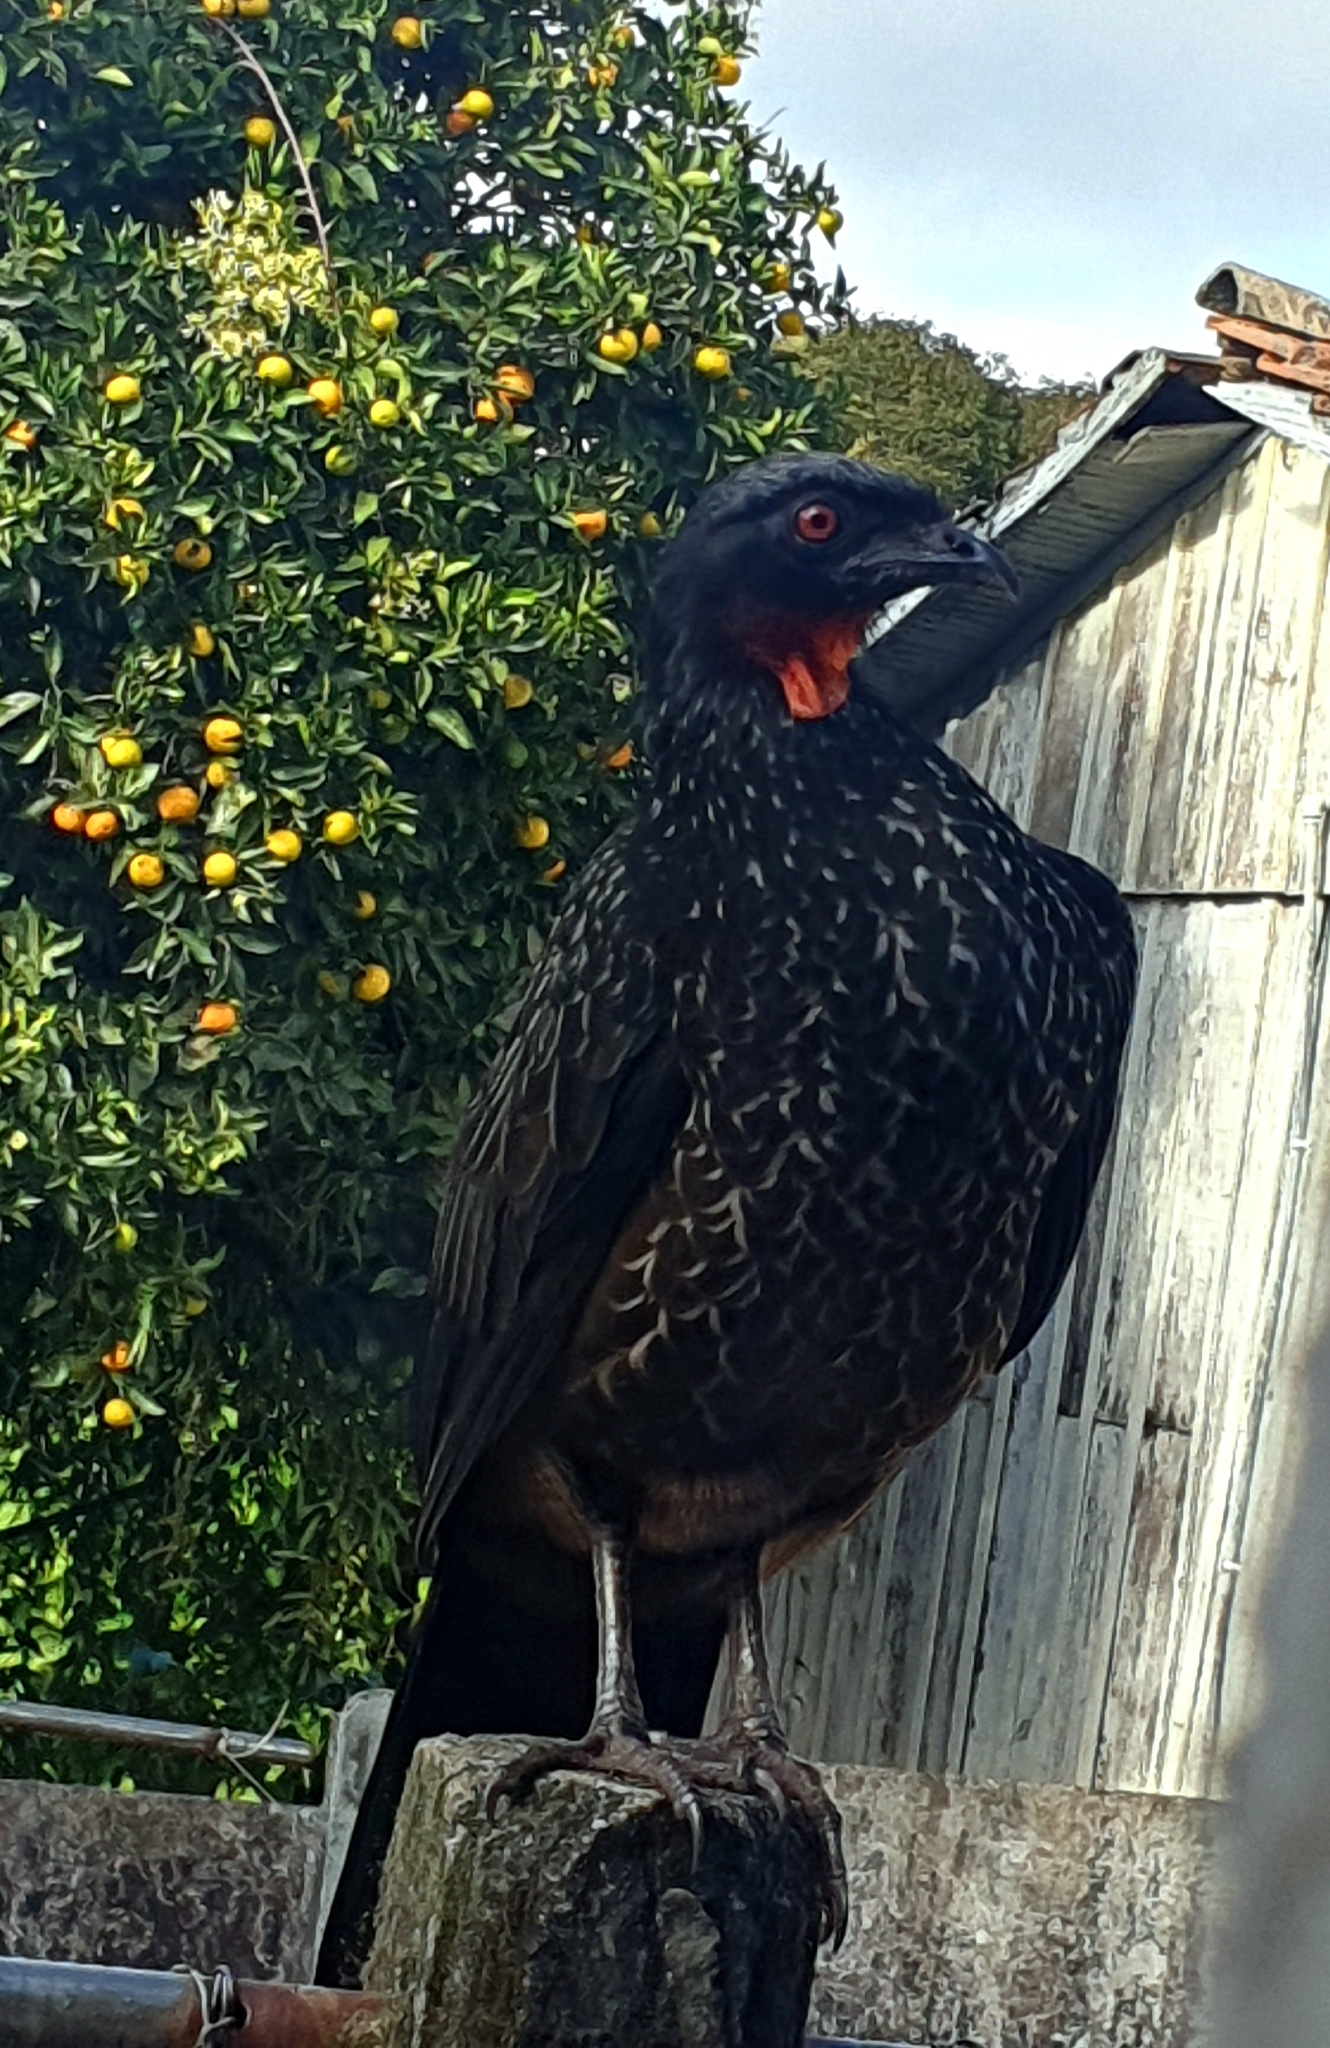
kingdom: Animalia
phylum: Chordata
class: Aves
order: Galliformes
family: Cracidae
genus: Penelope
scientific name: Penelope obscura
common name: Dusky-legged guan
